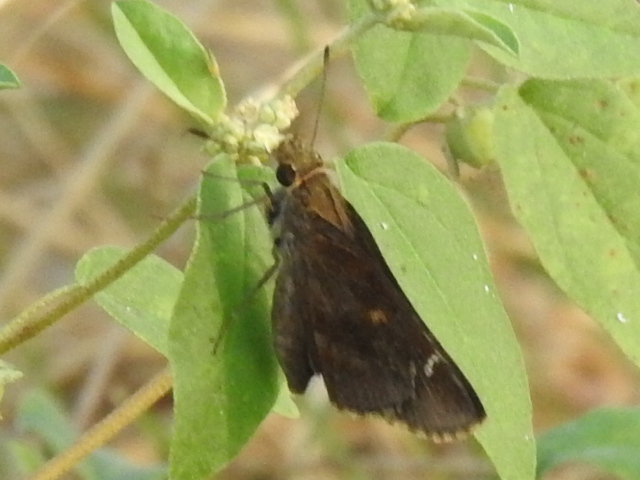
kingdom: Animalia
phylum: Arthropoda
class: Insecta
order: Lepidoptera
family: Hesperiidae
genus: Lerema
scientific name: Lerema accius
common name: Clouded skipper
